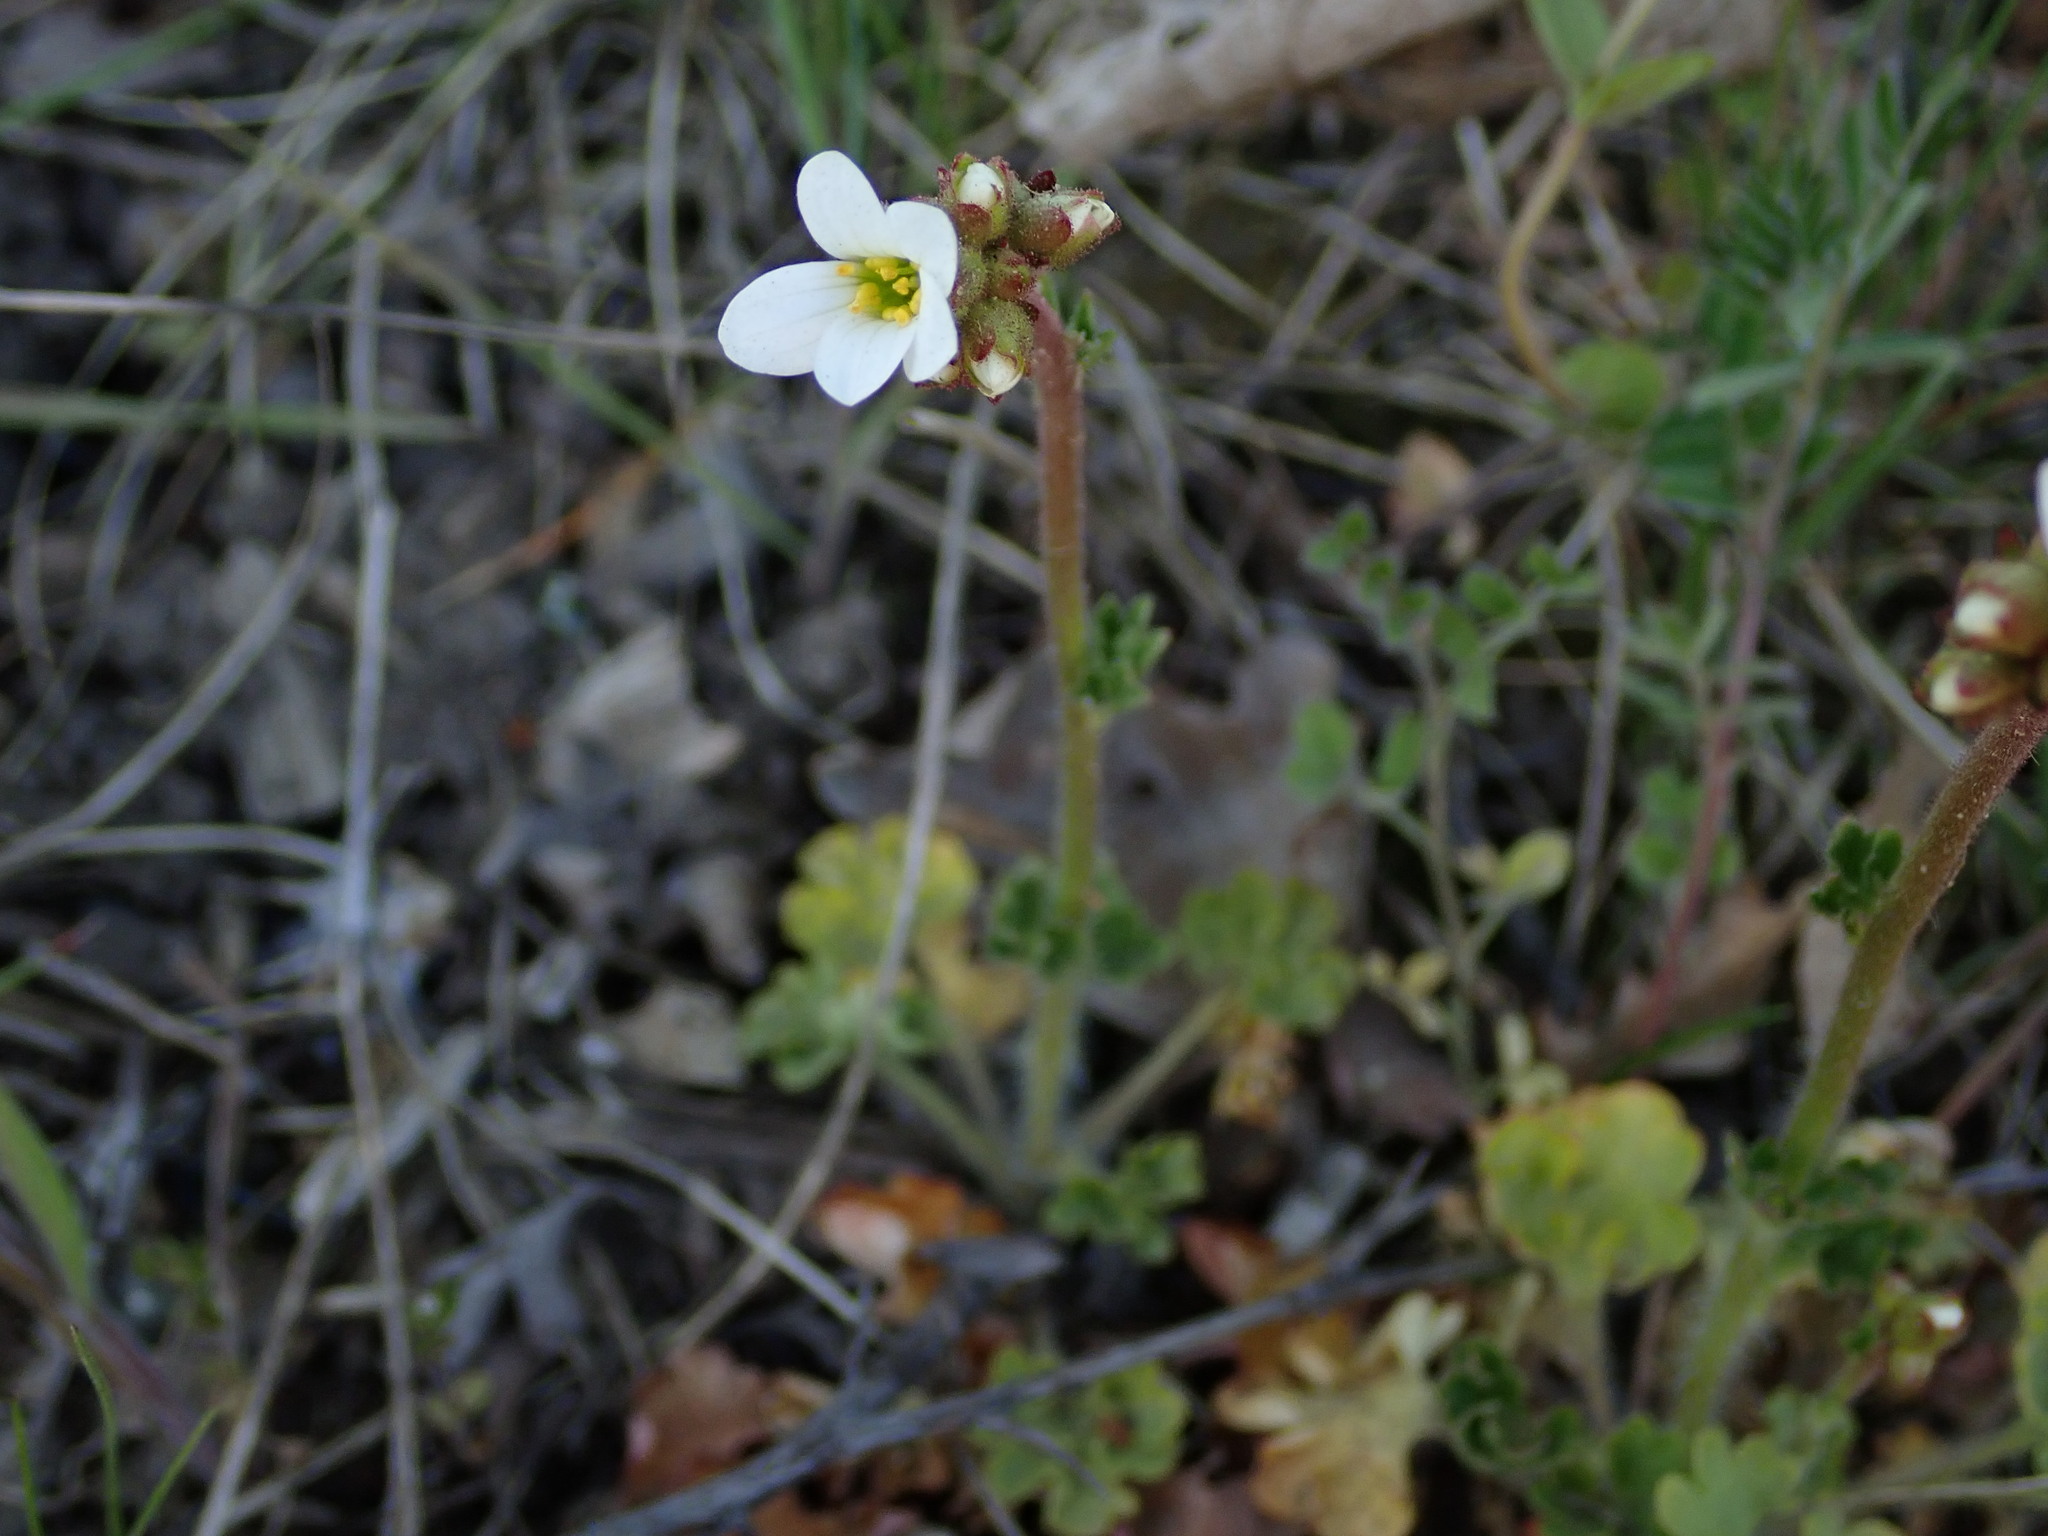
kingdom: Plantae
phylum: Tracheophyta
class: Magnoliopsida
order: Saxifragales
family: Saxifragaceae
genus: Saxifraga
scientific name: Saxifraga granulata
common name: Meadow saxifrage
